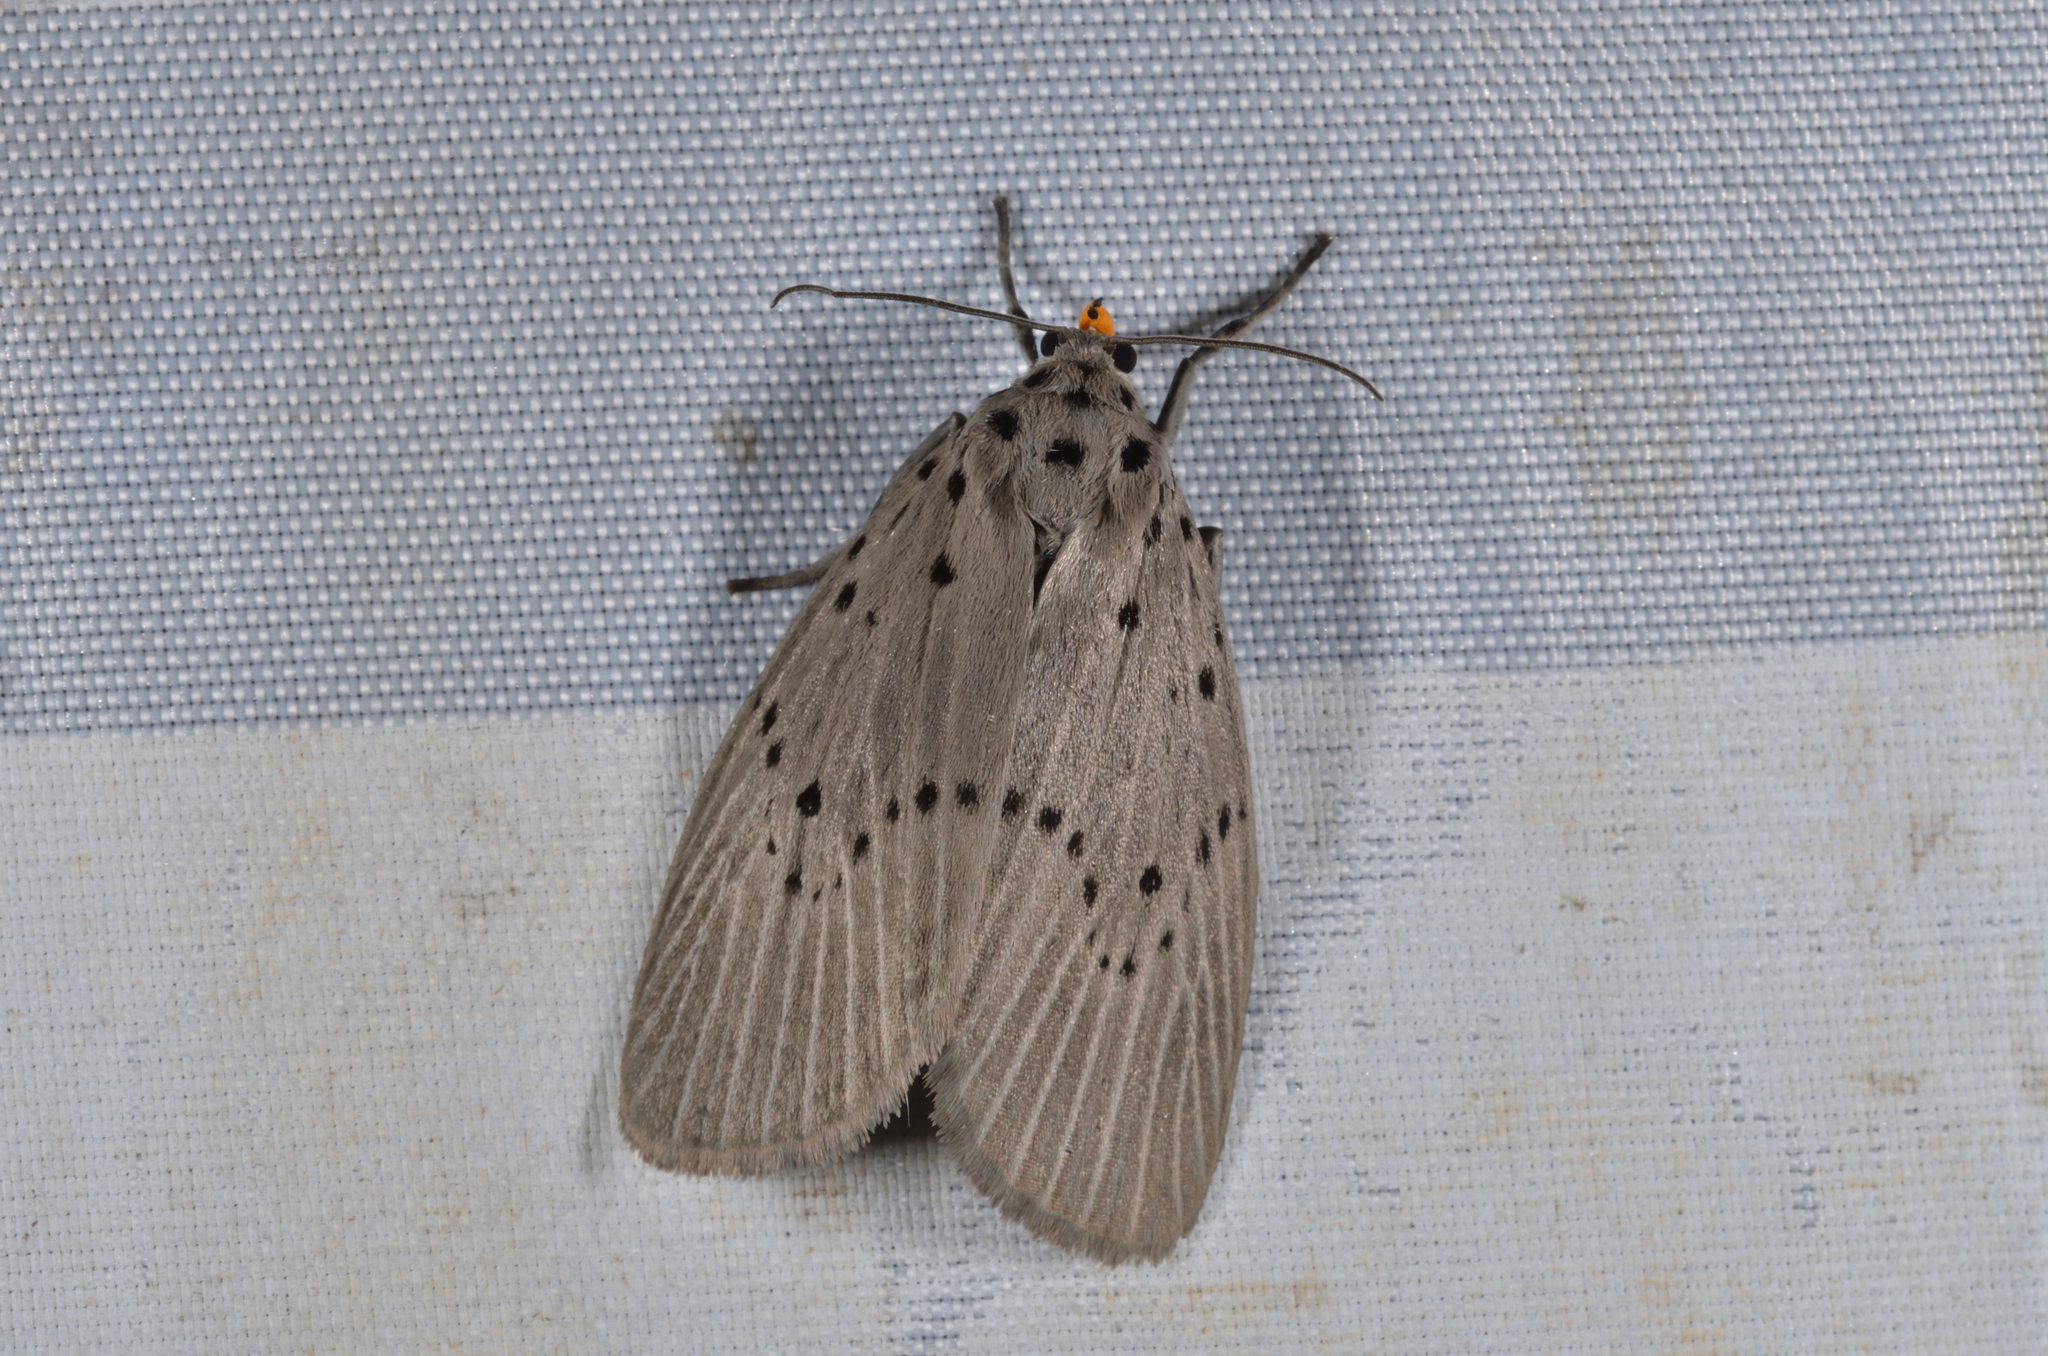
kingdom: Animalia
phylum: Arthropoda
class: Insecta
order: Lepidoptera
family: Erebidae
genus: Baroa
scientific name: Baroa punctivaga
